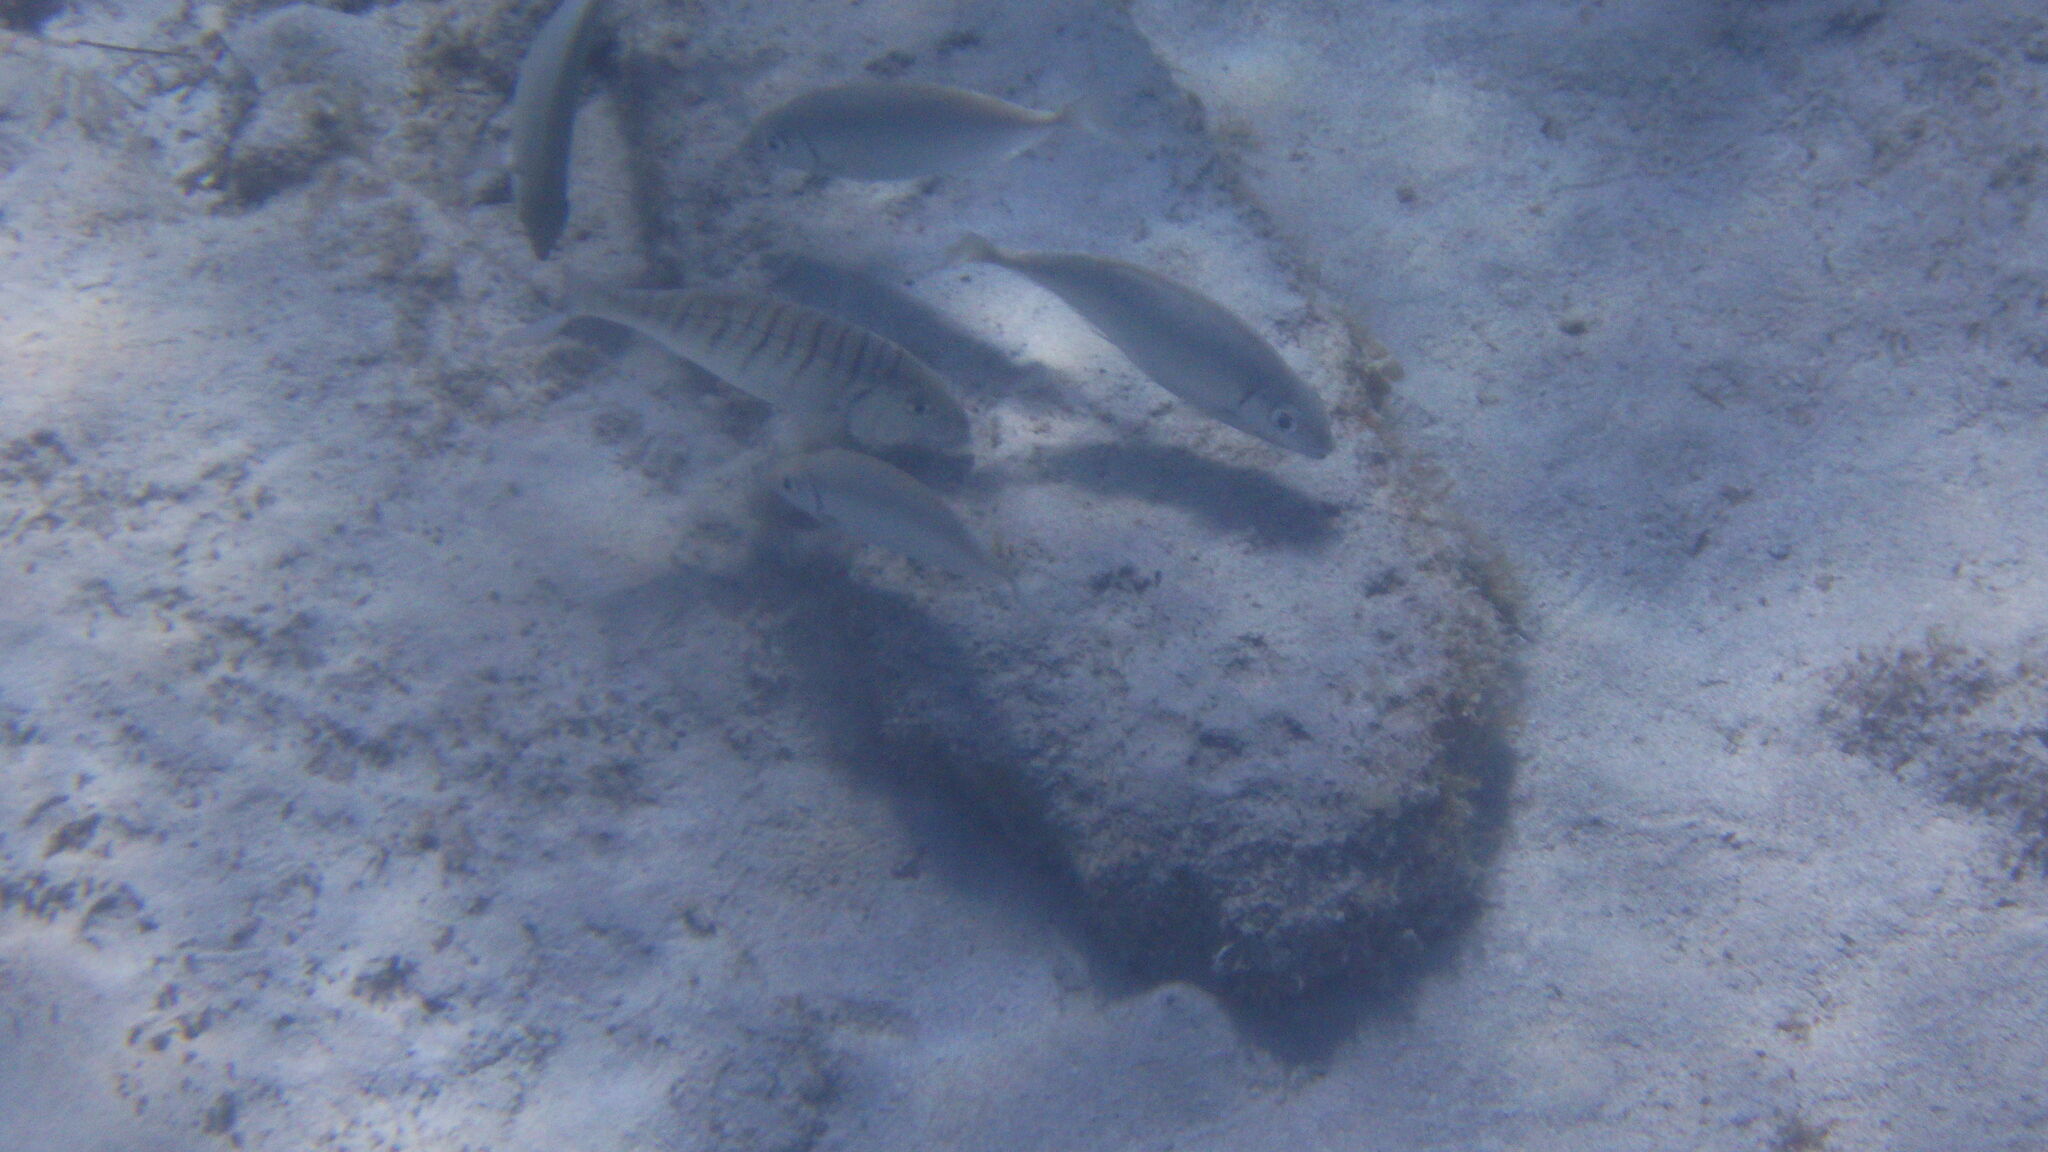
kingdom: Animalia
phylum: Chordata
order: Perciformes
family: Sparidae
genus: Lithognathus
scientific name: Lithognathus mormyrus
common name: Sand steenbras
